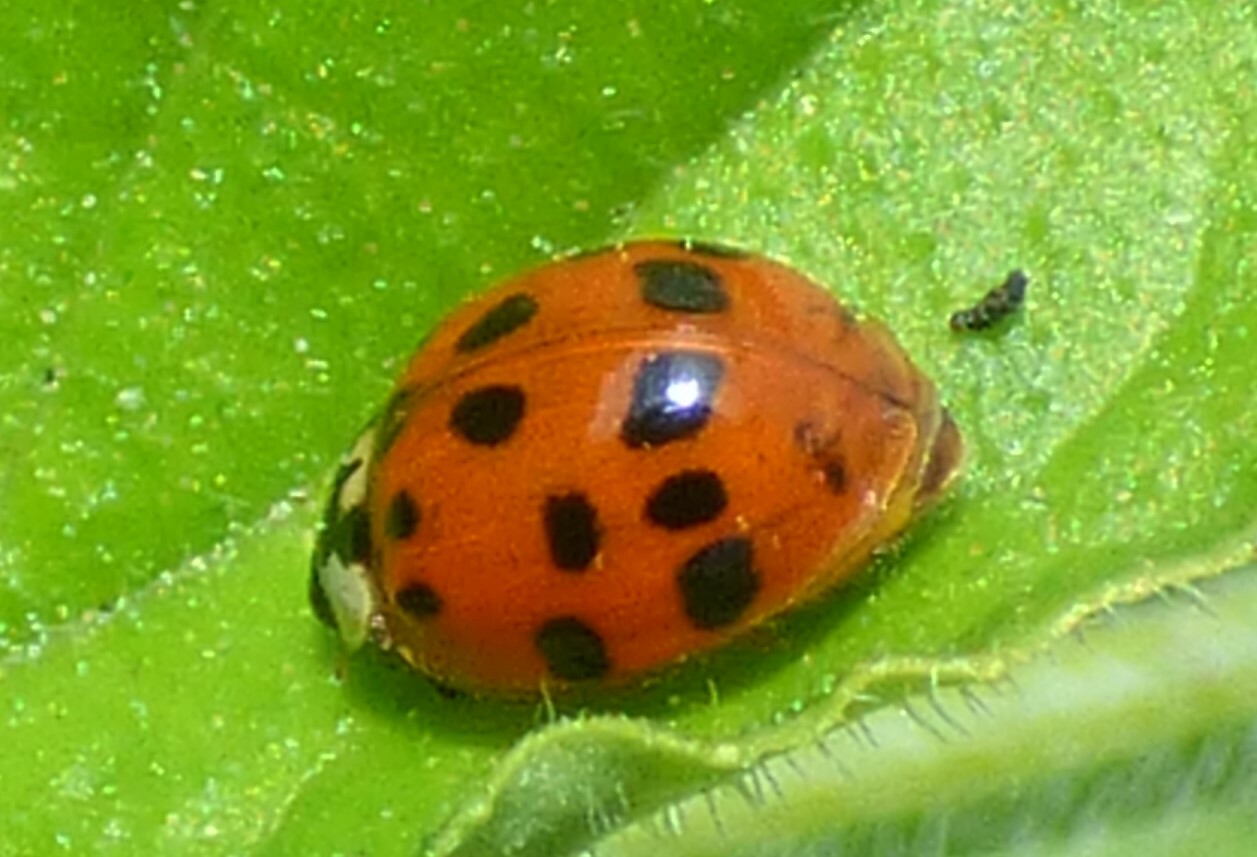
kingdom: Animalia
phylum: Arthropoda
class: Insecta
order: Coleoptera
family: Coccinellidae
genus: Harmonia
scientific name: Harmonia axyridis
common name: Harlequin ladybird
